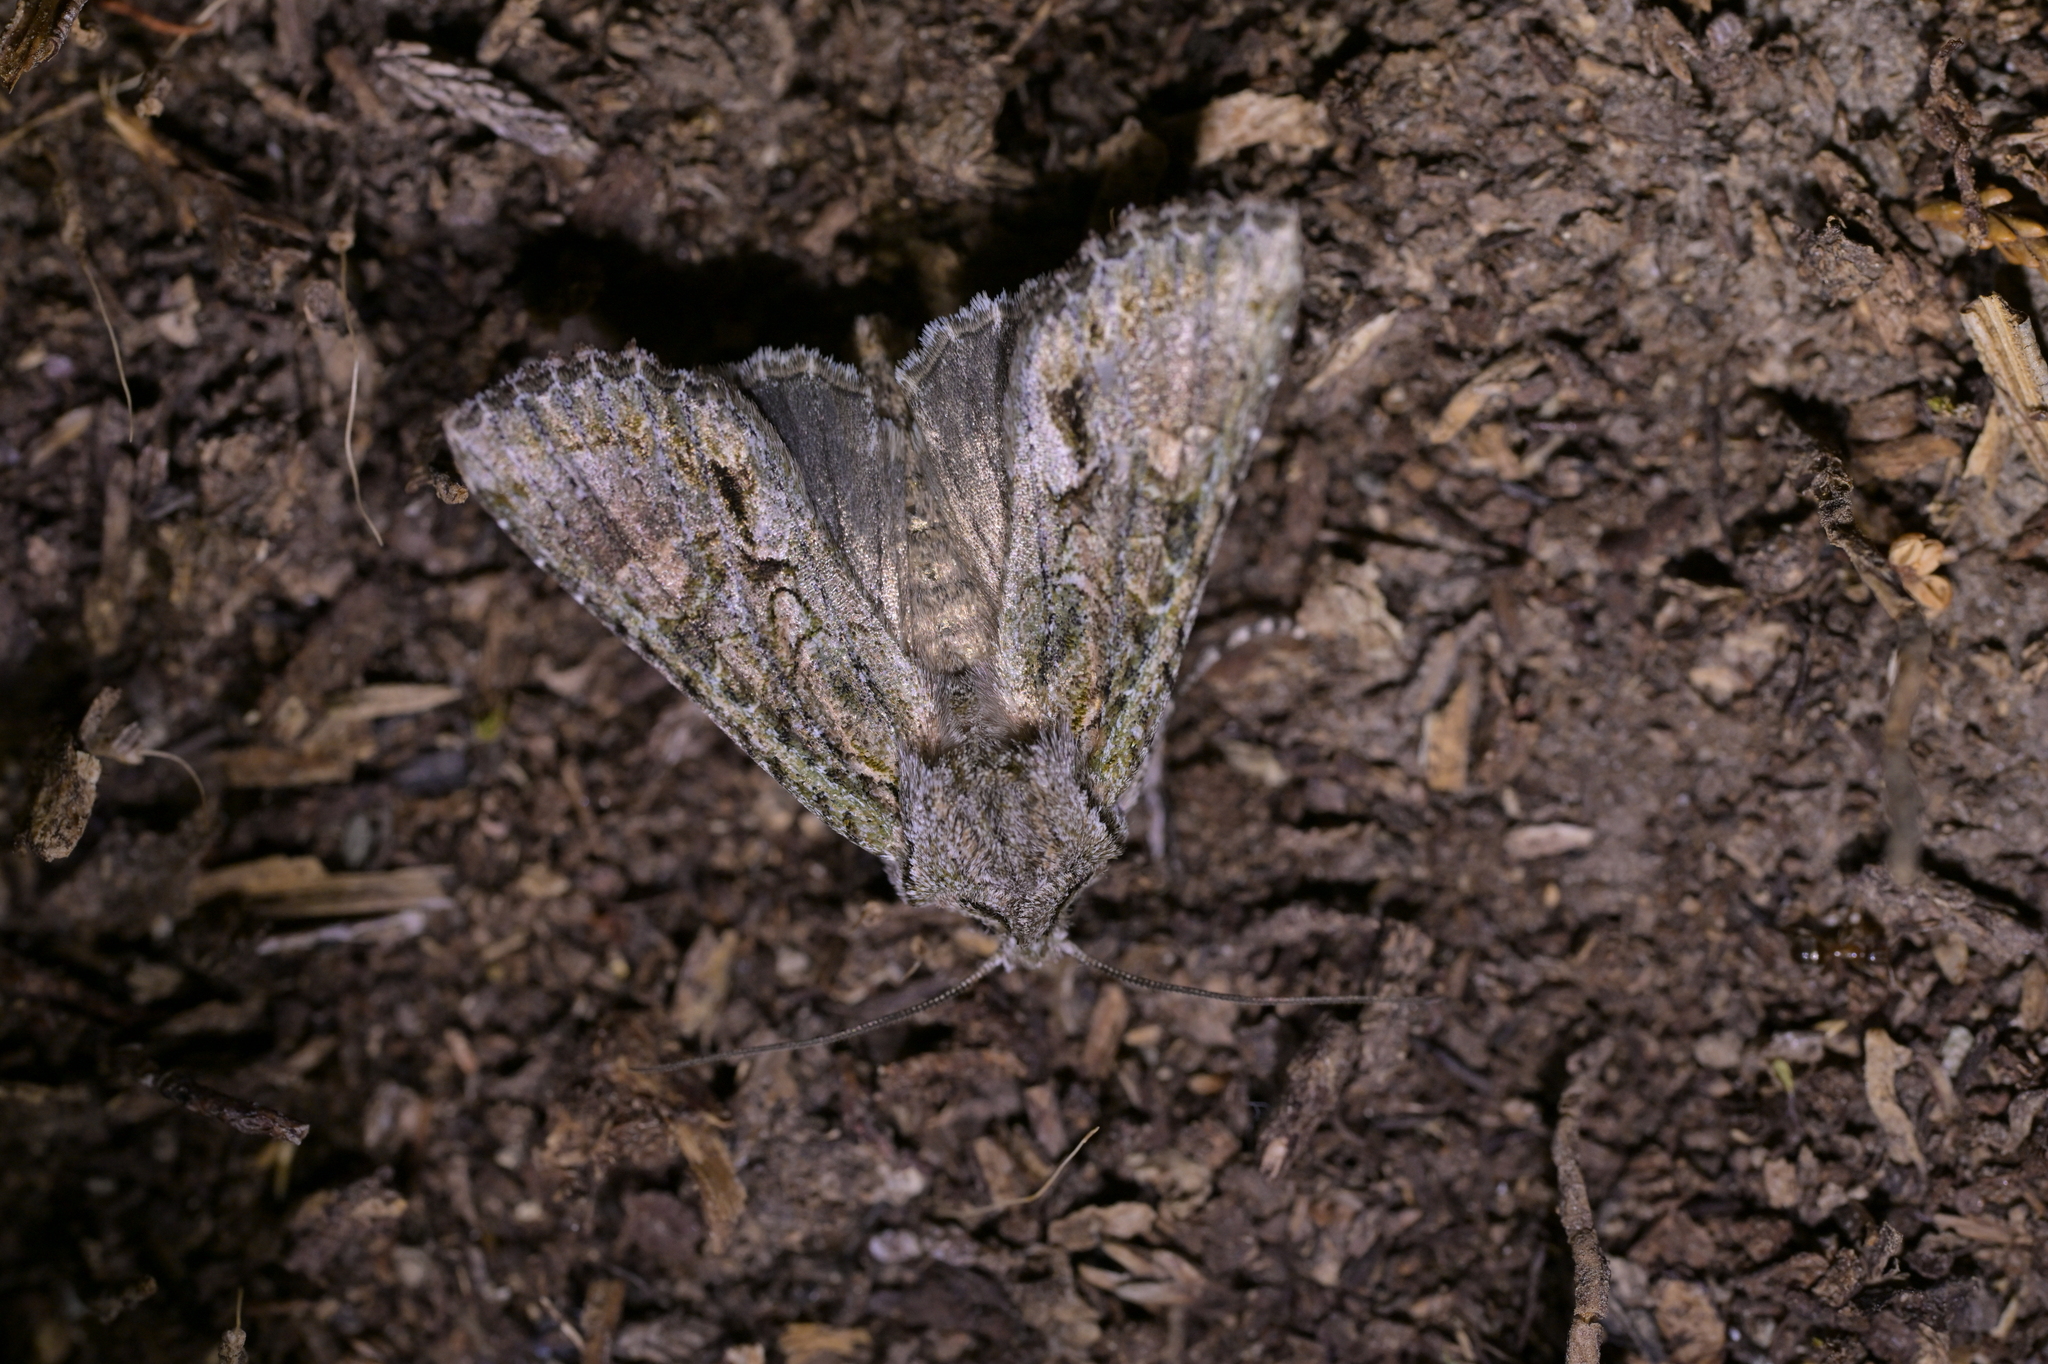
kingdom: Animalia
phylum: Arthropoda
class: Insecta
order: Lepidoptera
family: Noctuidae
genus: Ichneutica
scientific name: Ichneutica mutans
